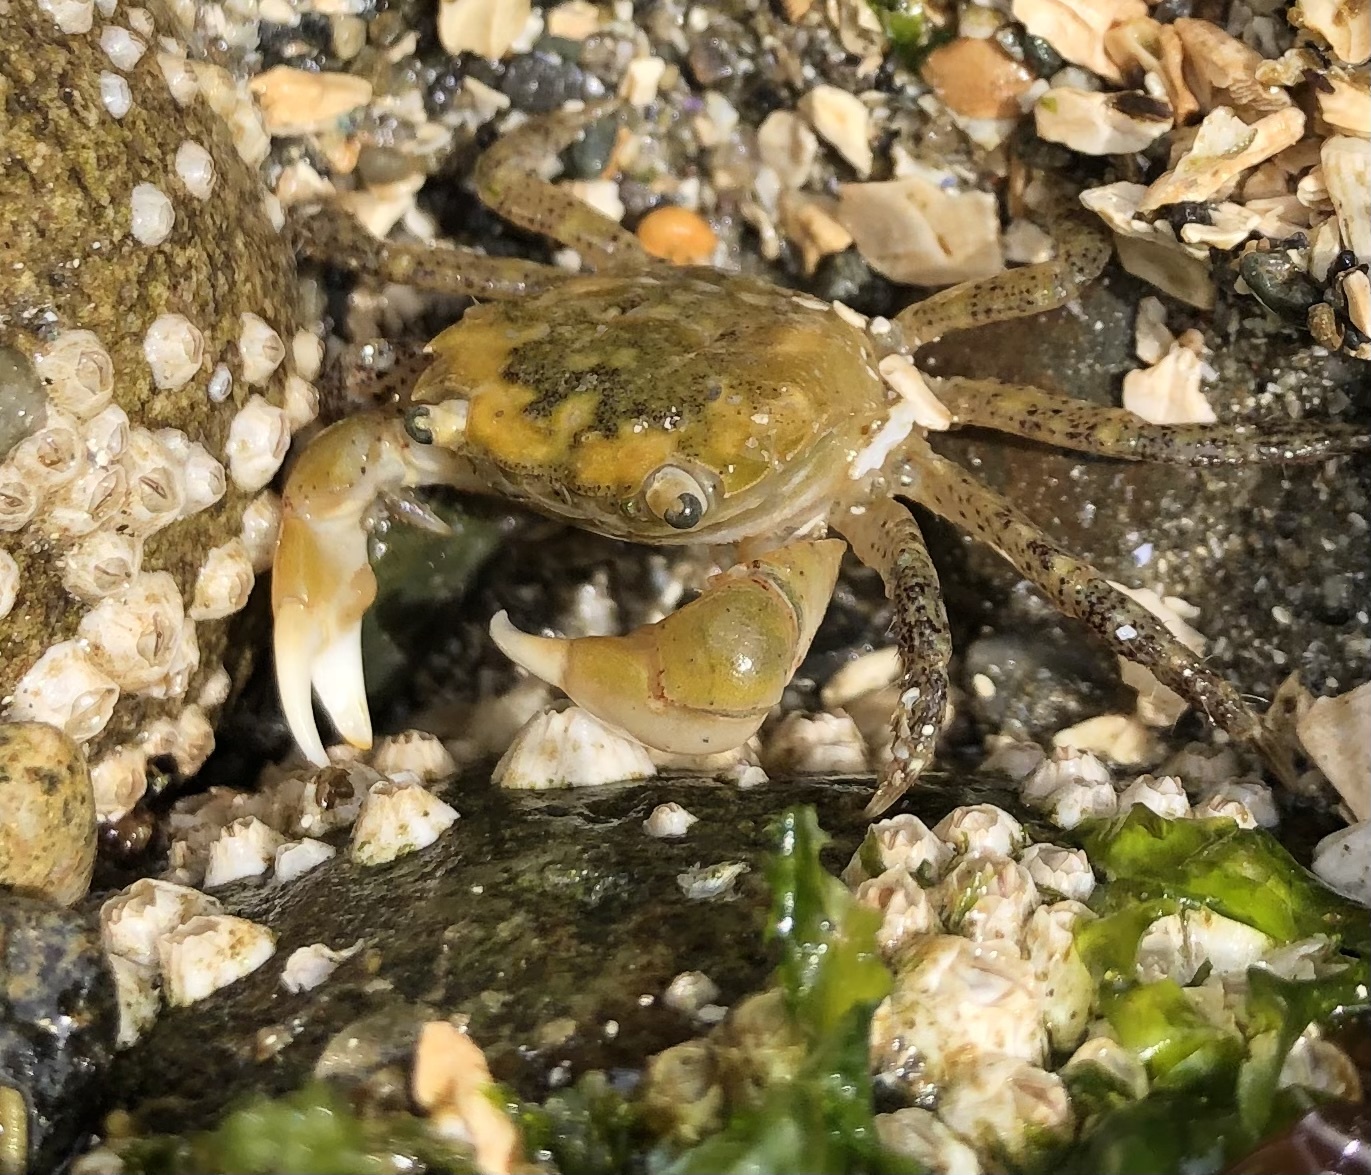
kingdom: Animalia
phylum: Arthropoda
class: Malacostraca
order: Decapoda
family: Varunidae
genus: Hemigrapsus
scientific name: Hemigrapsus oregonensis
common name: Yellow shore crab
